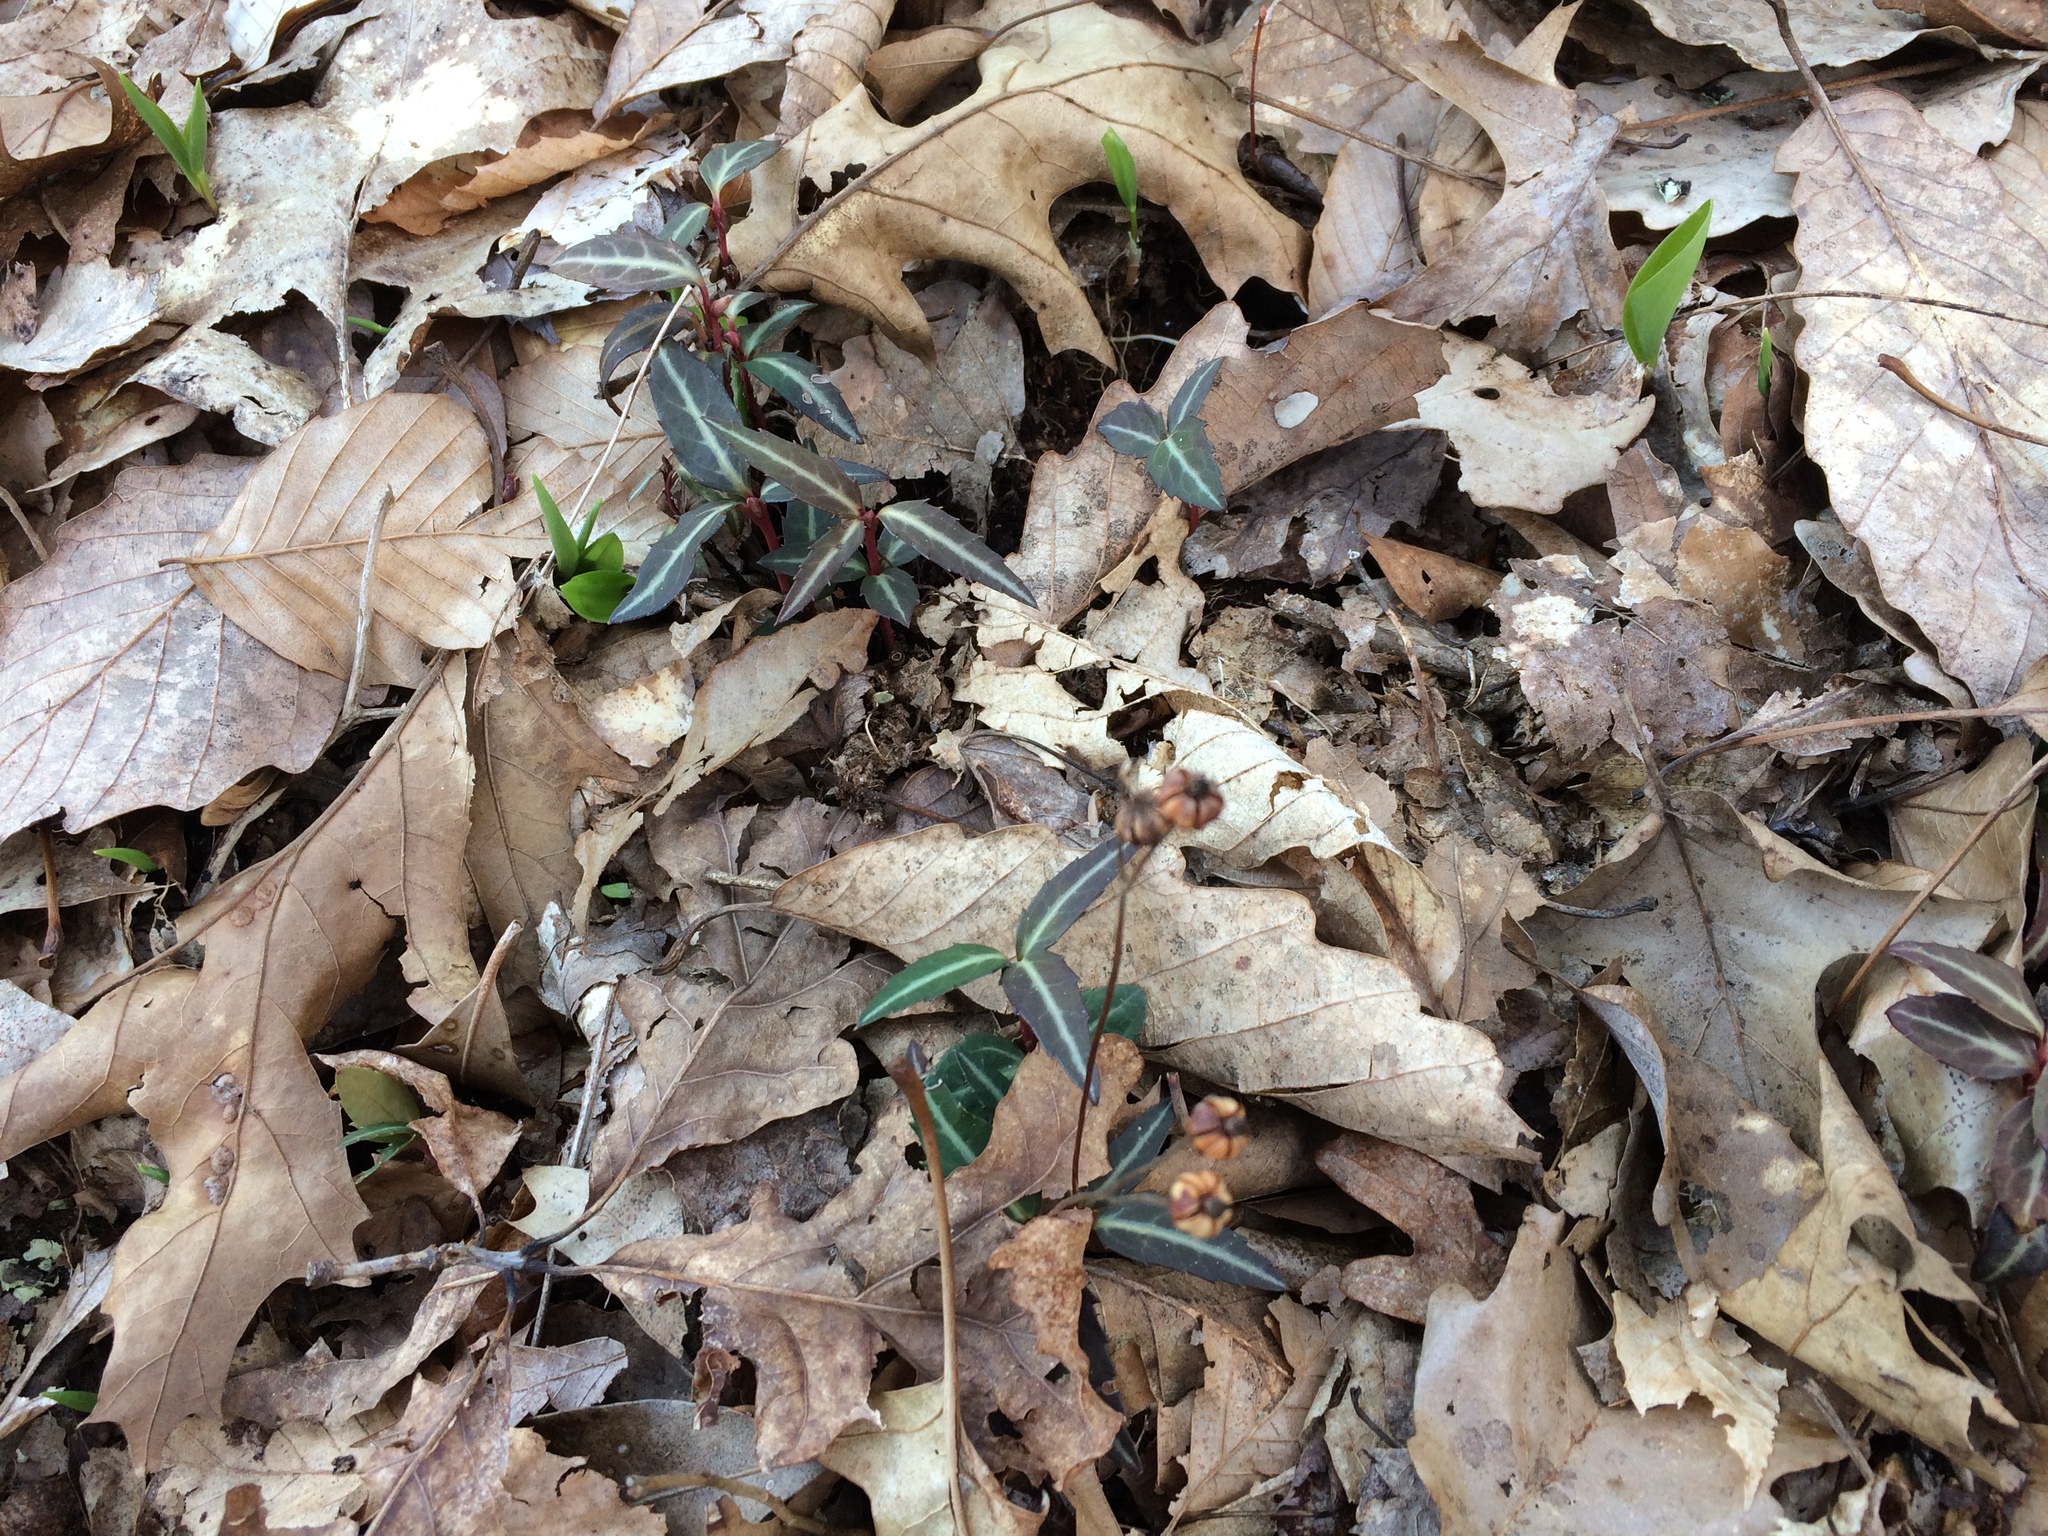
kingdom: Plantae
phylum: Tracheophyta
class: Magnoliopsida
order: Ericales
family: Ericaceae
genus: Chimaphila
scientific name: Chimaphila maculata
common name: Spotted pipsissewa
